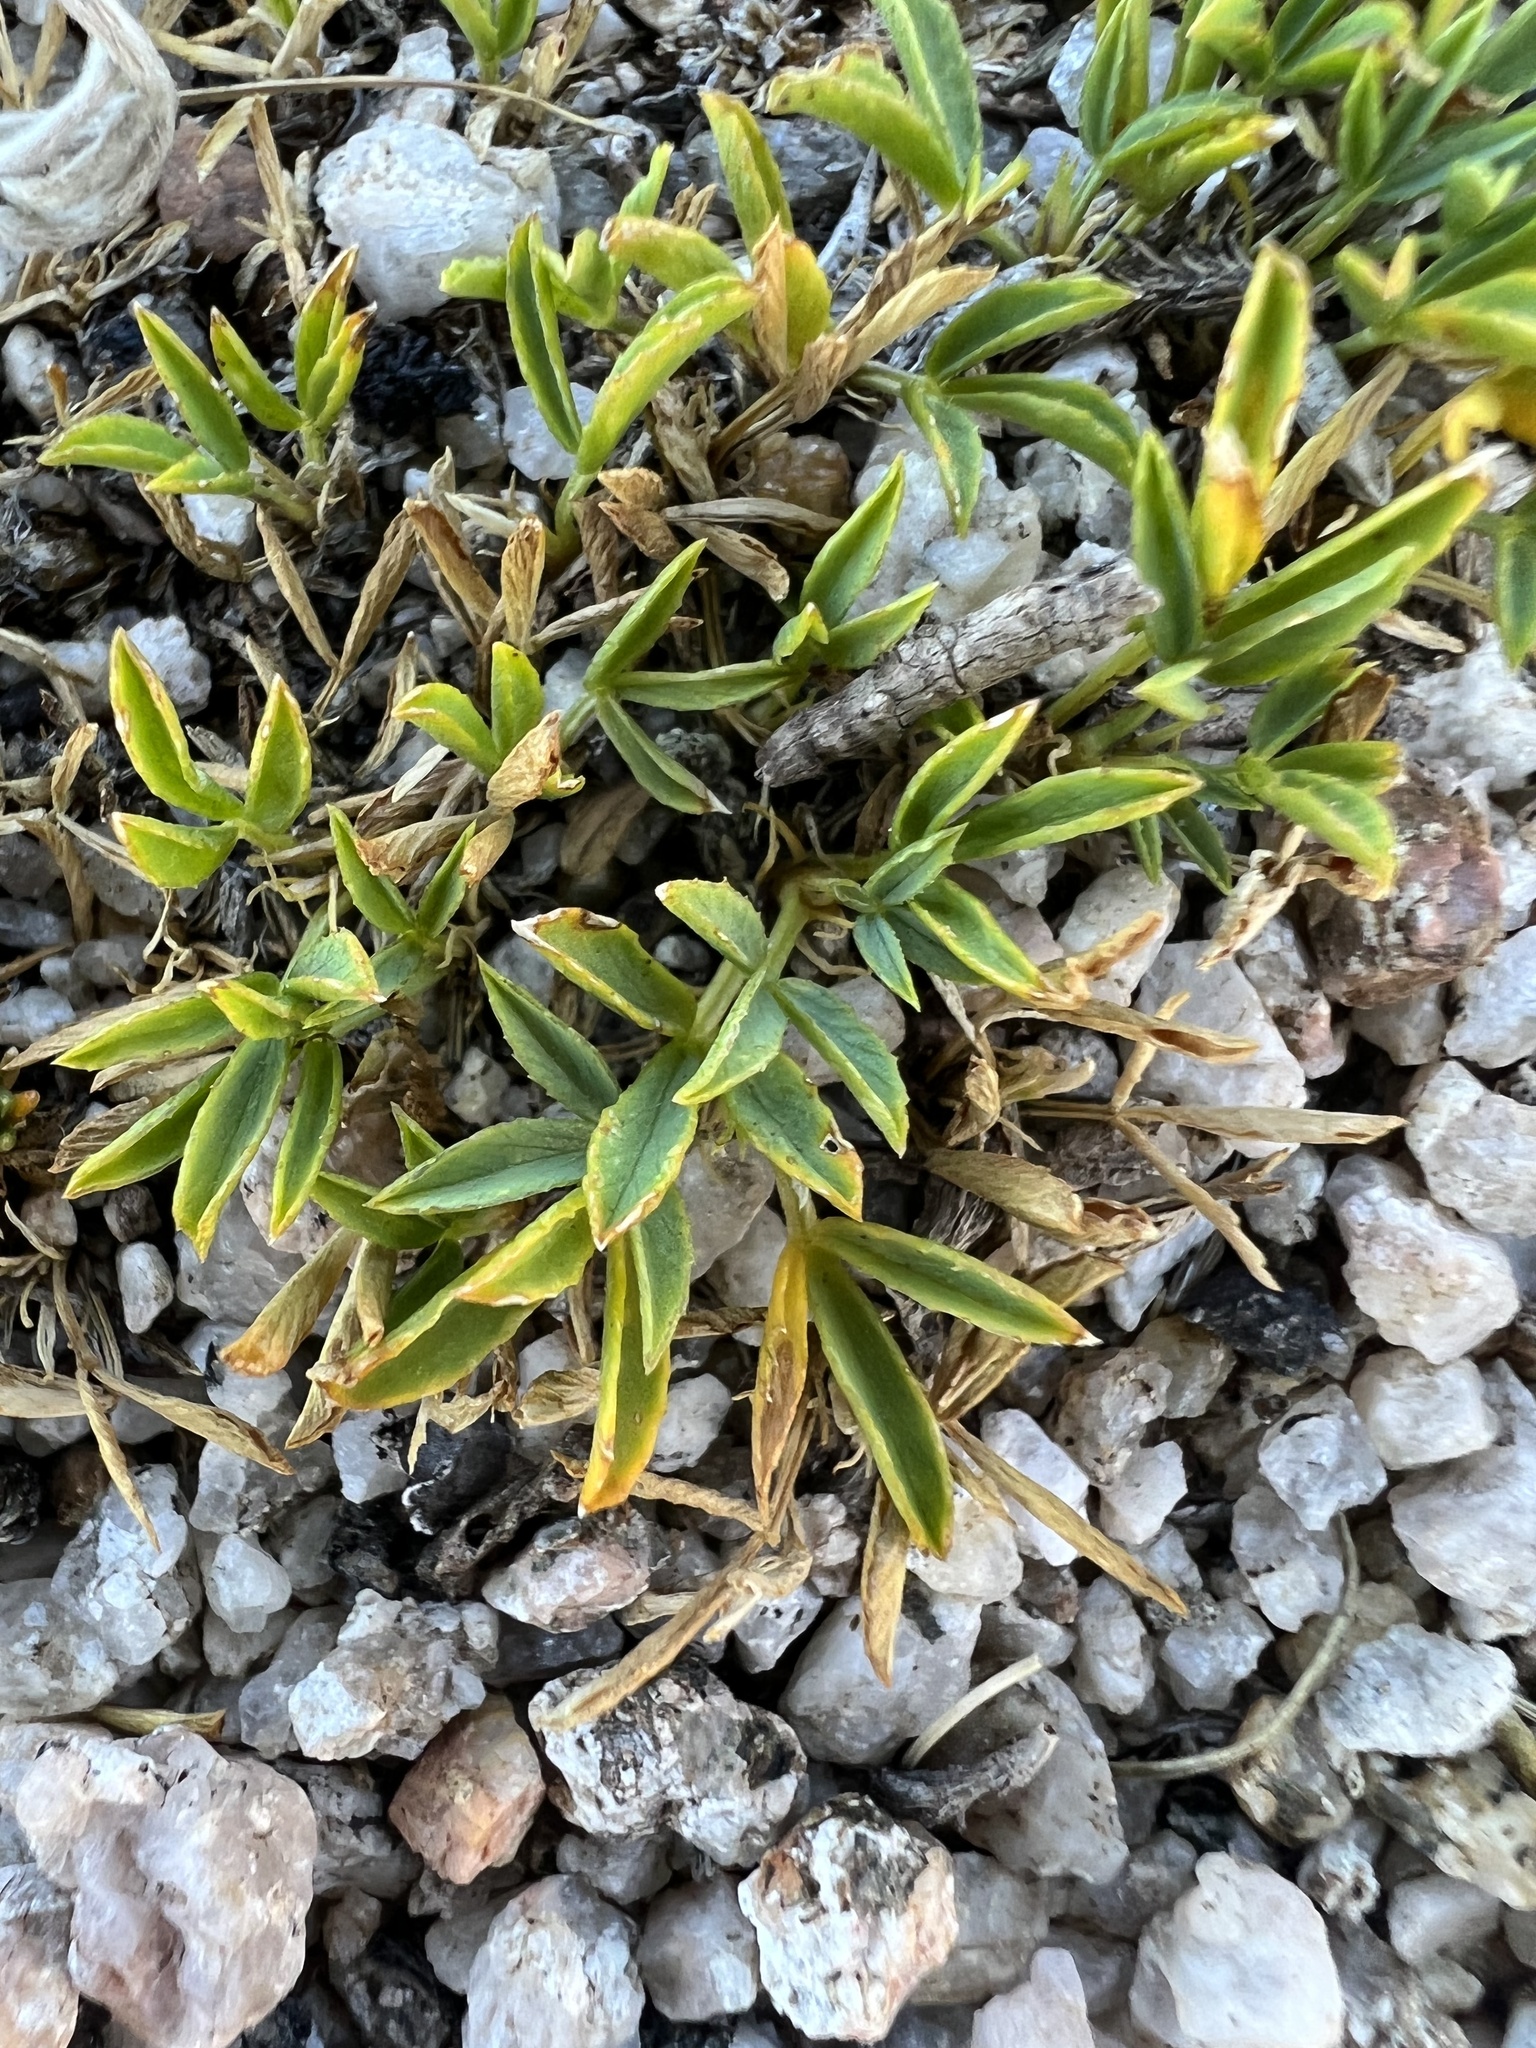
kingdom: Plantae
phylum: Tracheophyta
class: Magnoliopsida
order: Fabales
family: Fabaceae
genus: Trifolium
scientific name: Trifolium nanum
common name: Tundra clover
